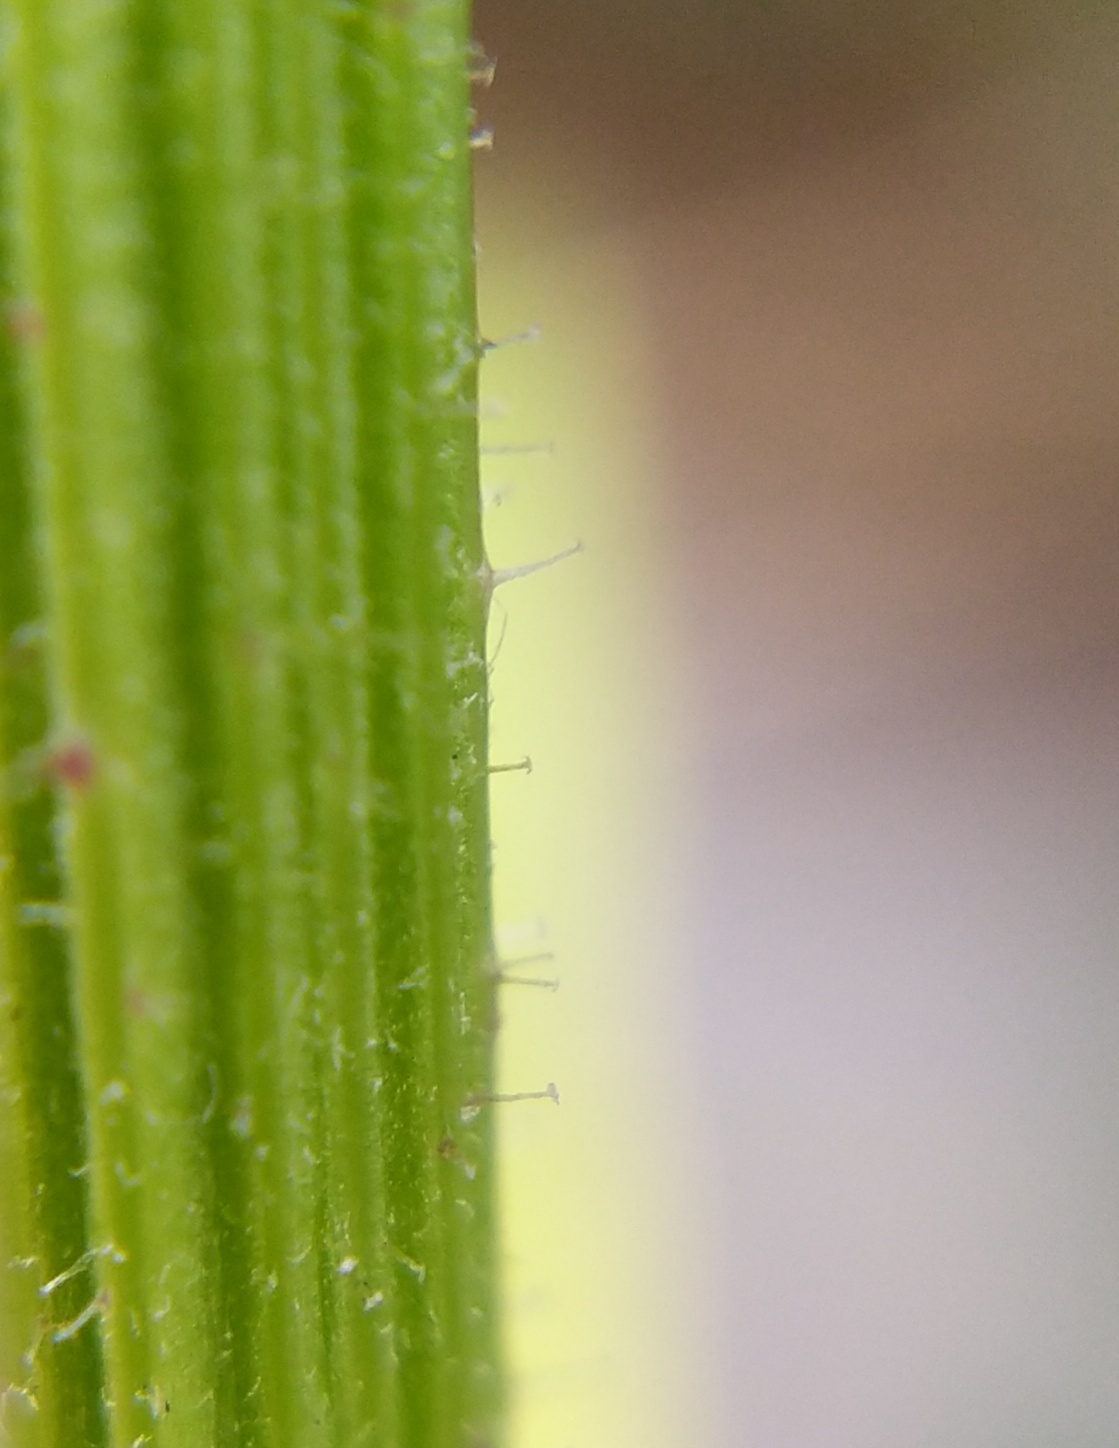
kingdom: Plantae
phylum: Tracheophyta
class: Magnoliopsida
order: Asterales
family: Asteraceae
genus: Picris
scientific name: Picris hieracioides
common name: Hawkweed oxtongue
